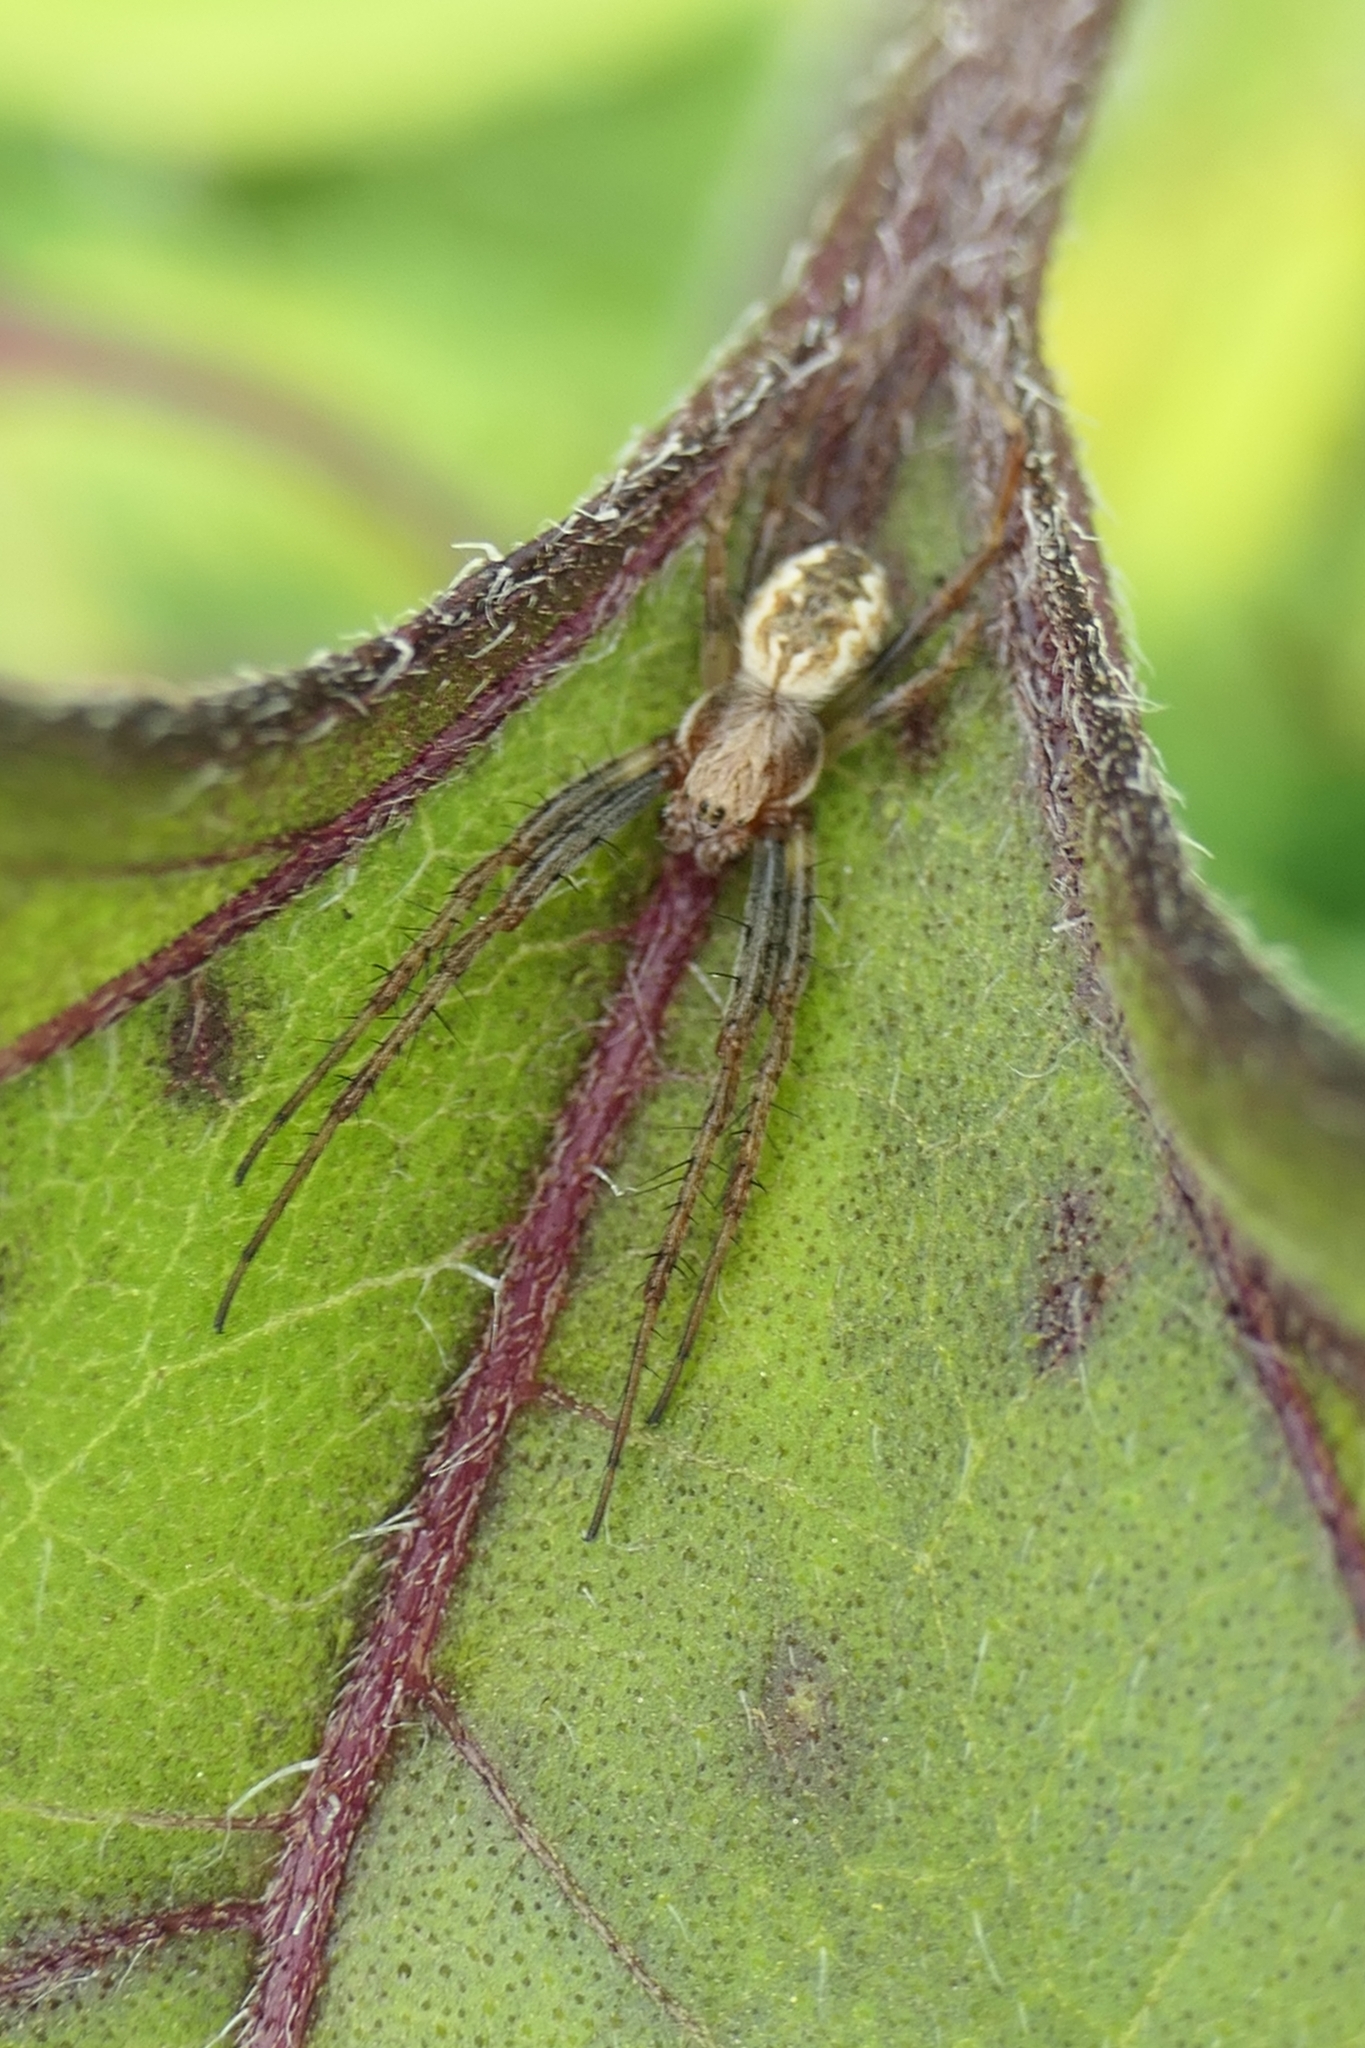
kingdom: Animalia
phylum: Arthropoda
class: Arachnida
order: Araneae
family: Araneidae
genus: Salsa
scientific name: Salsa fuliginata
